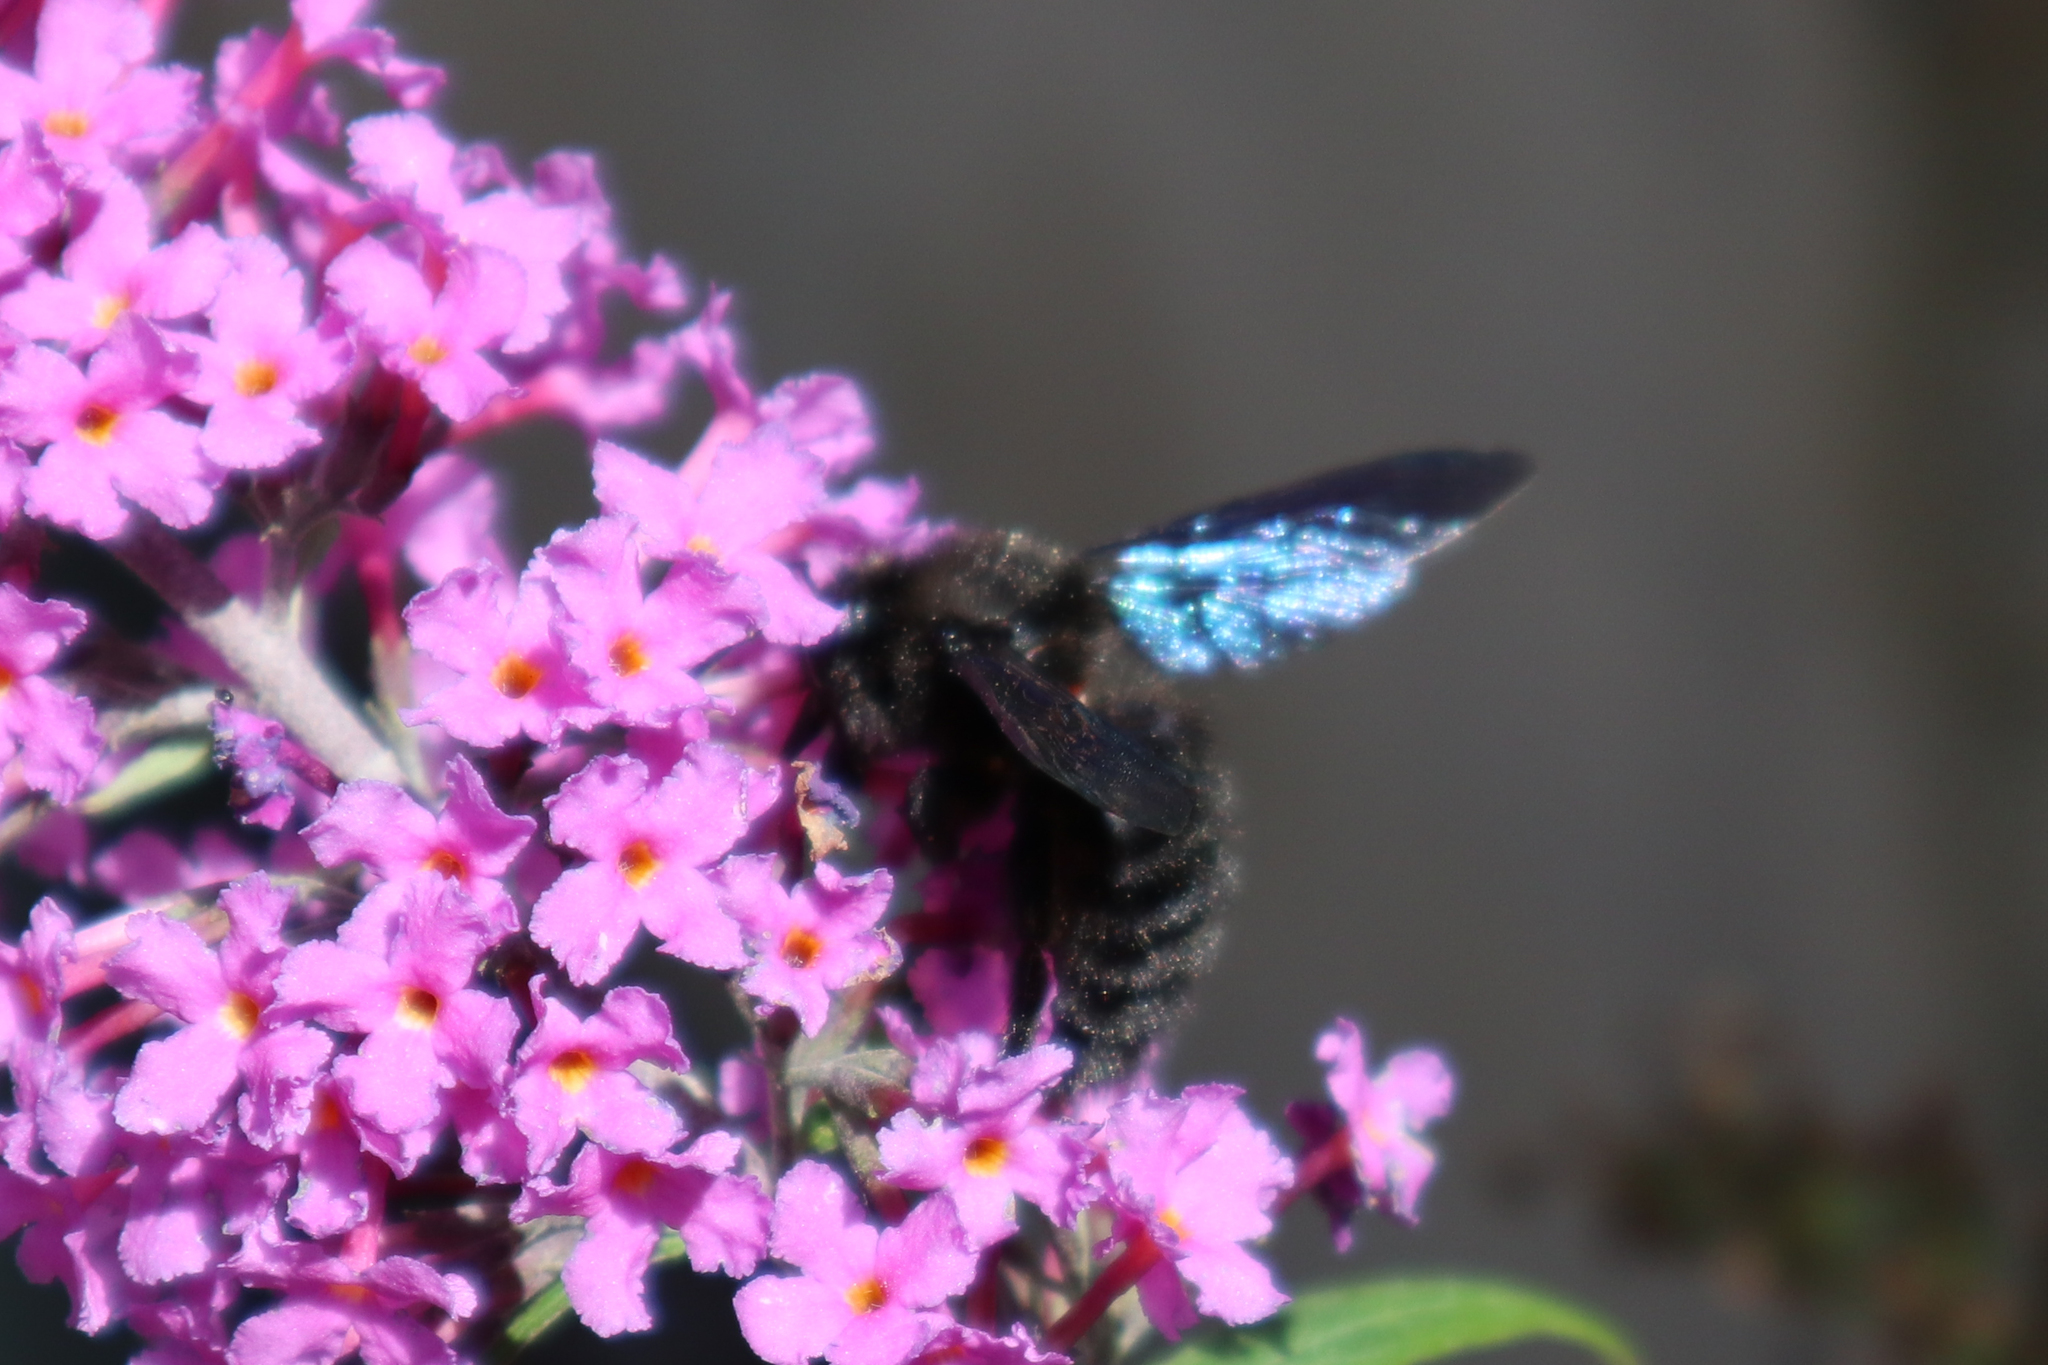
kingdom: Animalia
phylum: Arthropoda
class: Insecta
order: Hymenoptera
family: Apidae
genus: Xylocopa
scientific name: Xylocopa violacea
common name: Violet carpenter bee
